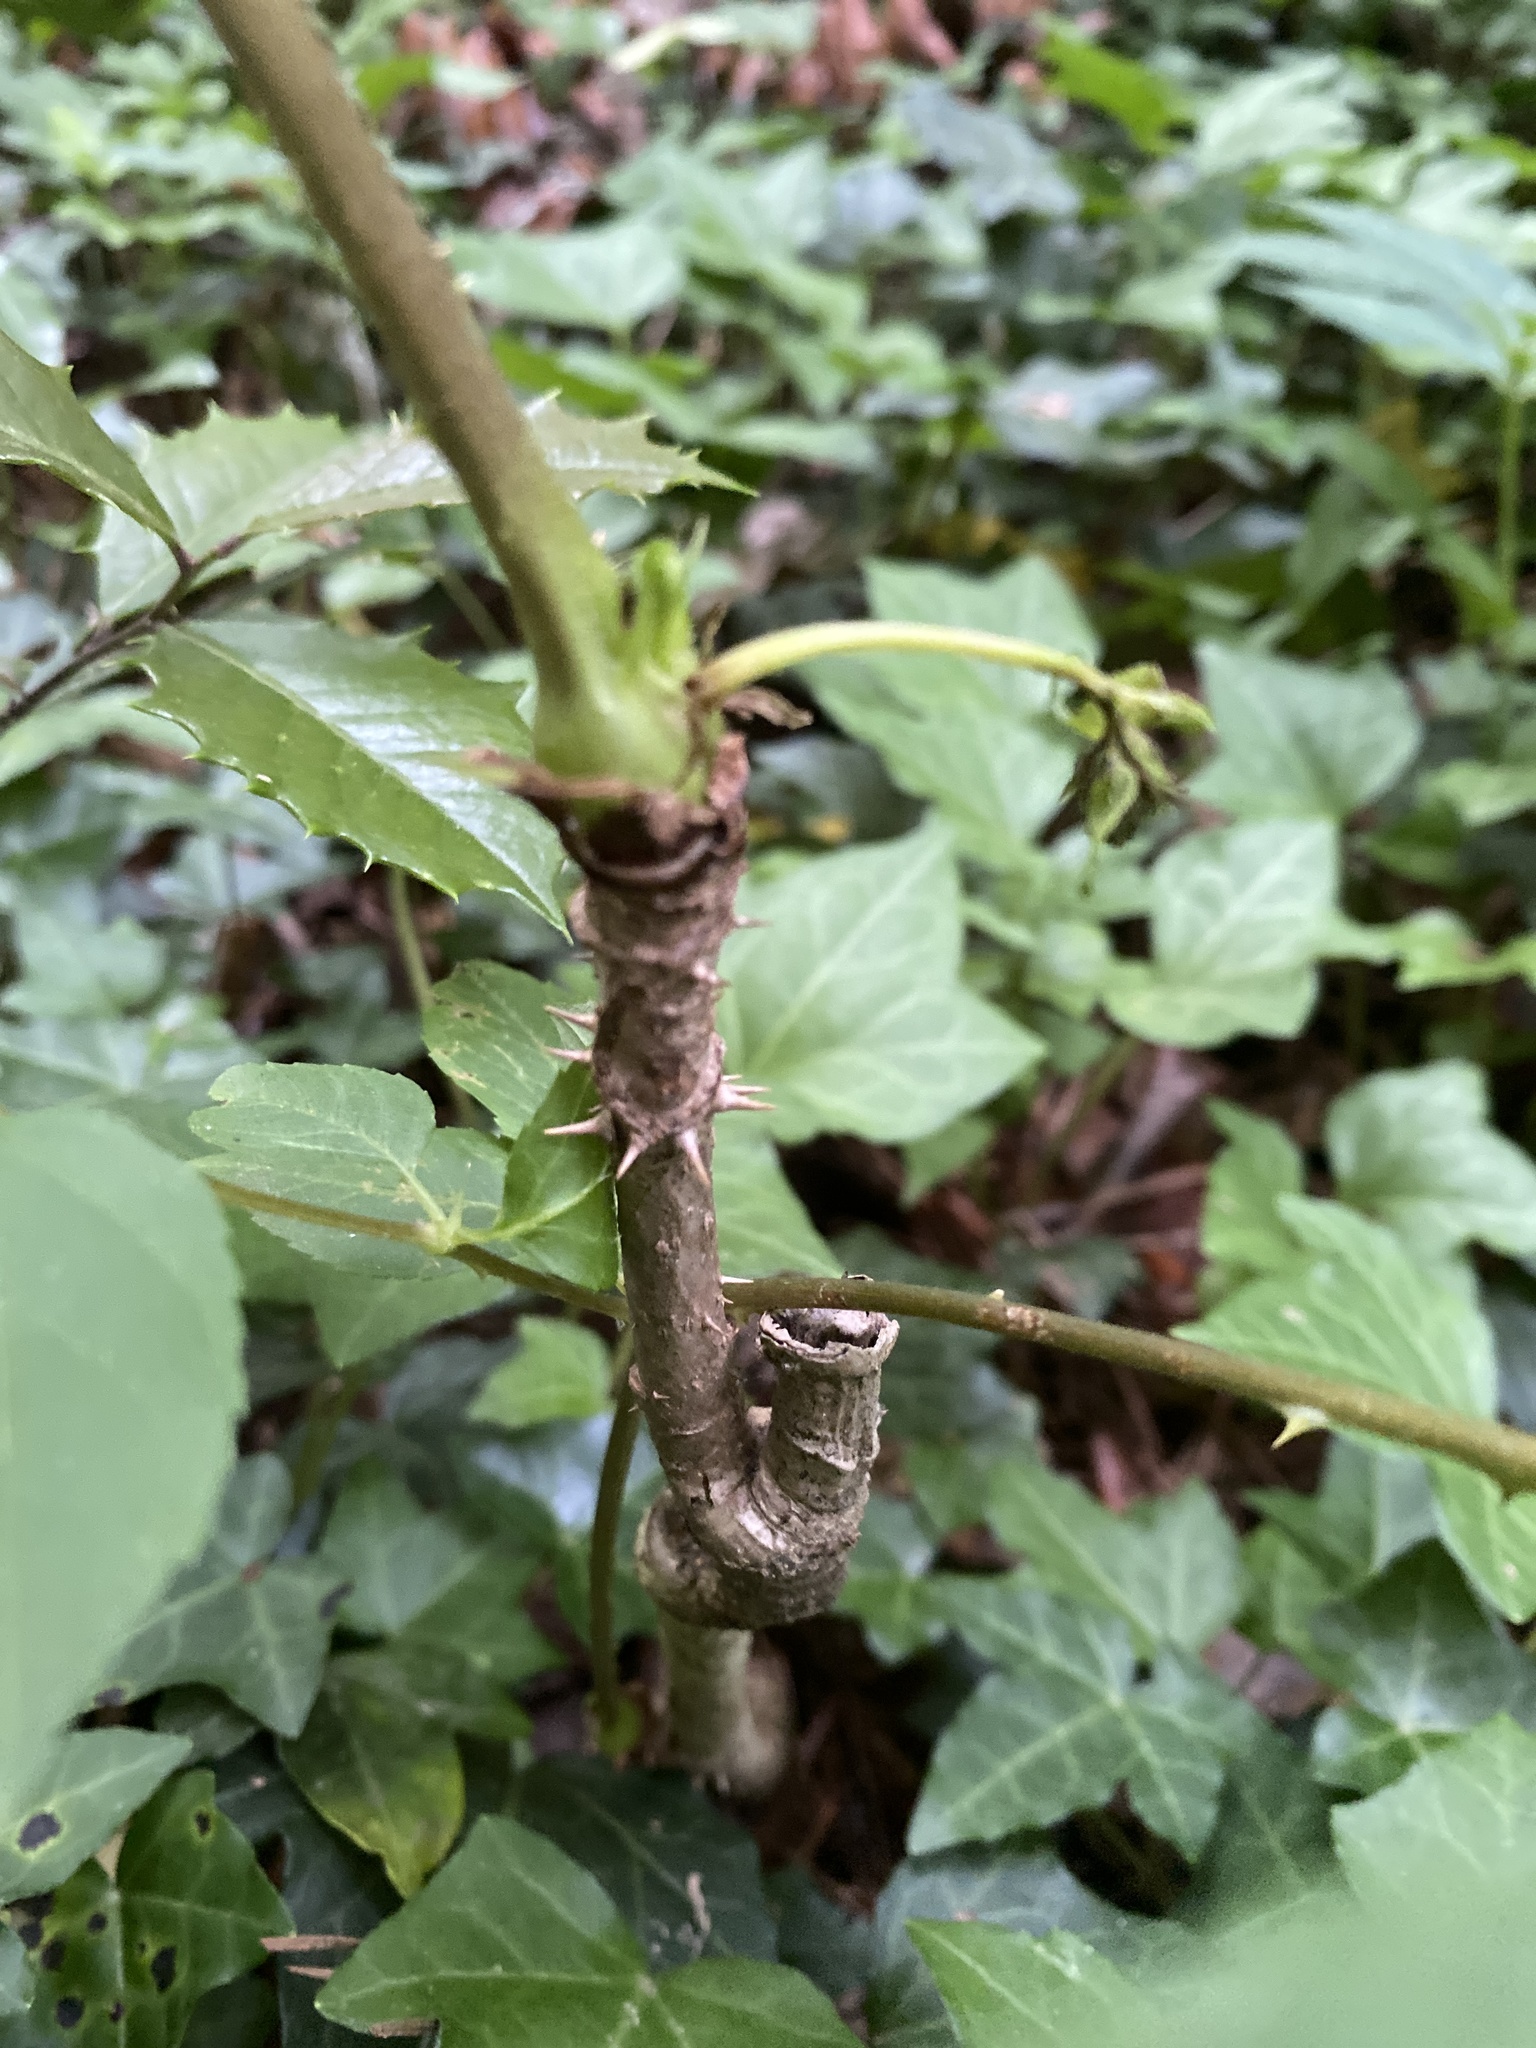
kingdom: Plantae
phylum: Tracheophyta
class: Magnoliopsida
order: Apiales
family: Araliaceae
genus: Aralia
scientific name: Aralia spinosa
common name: Hercules'-club
